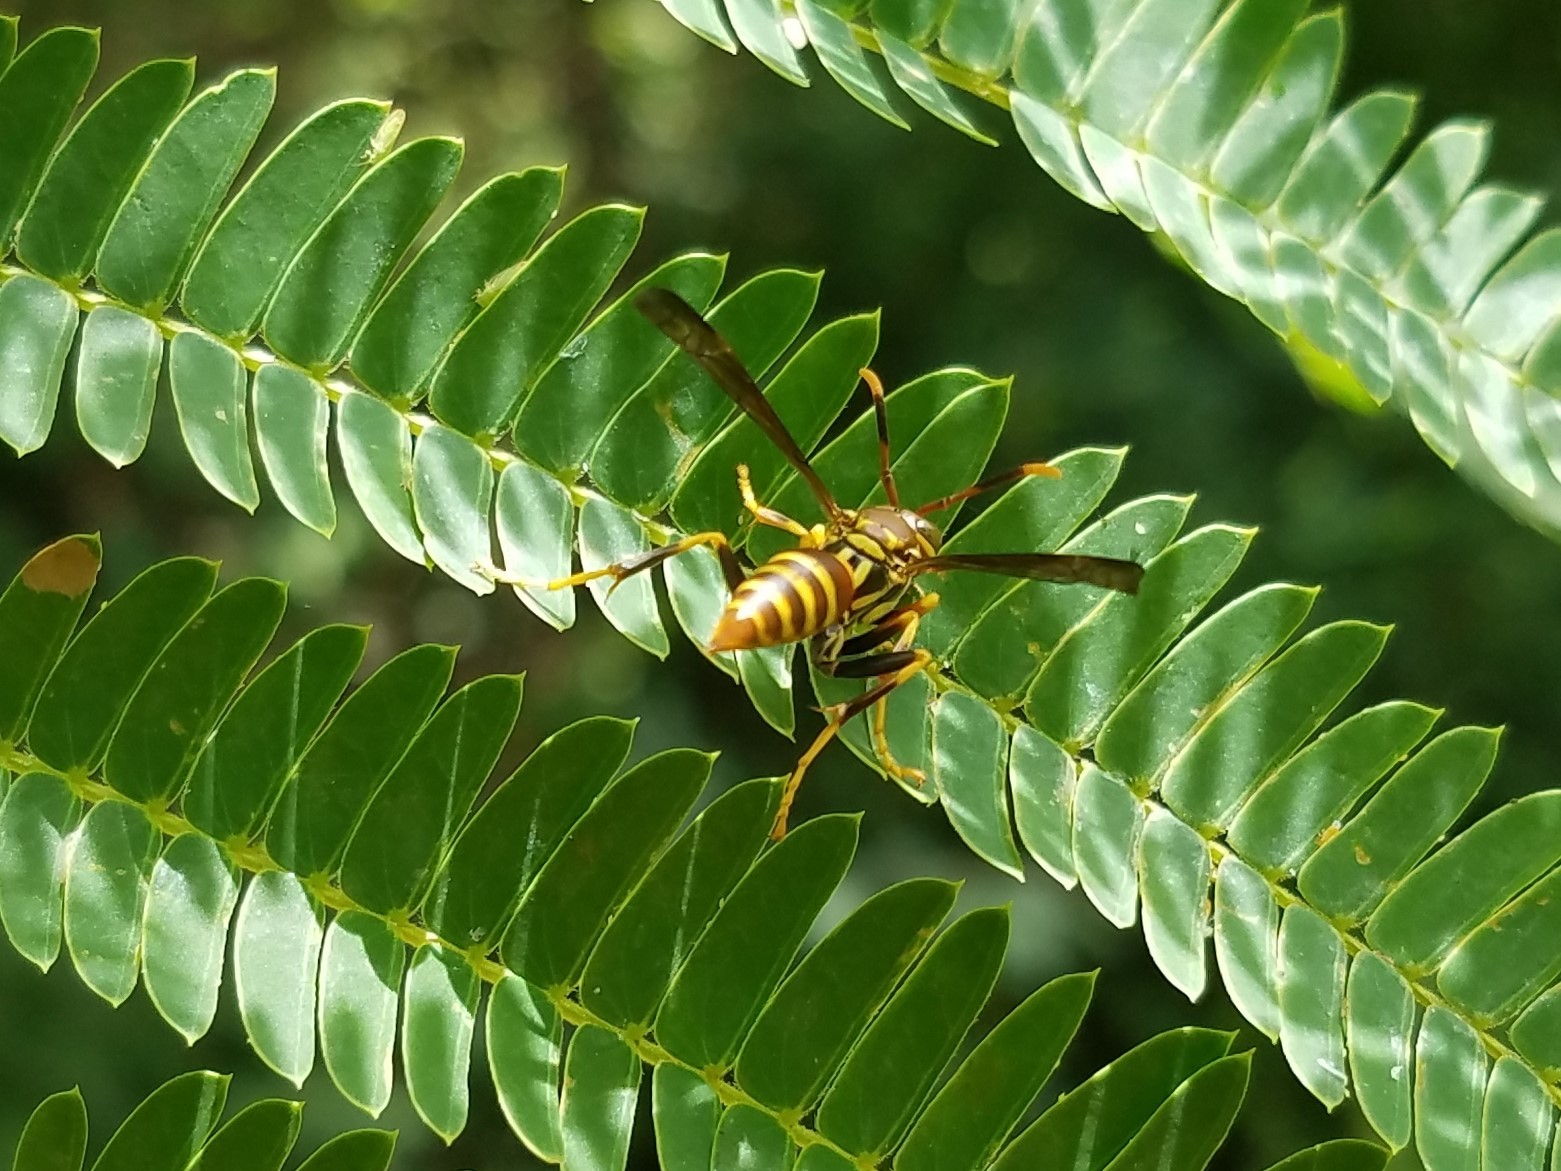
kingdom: Animalia
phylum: Arthropoda
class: Insecta
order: Hymenoptera
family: Eumenidae
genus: Polistes
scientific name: Polistes exclamans
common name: Paper wasp
